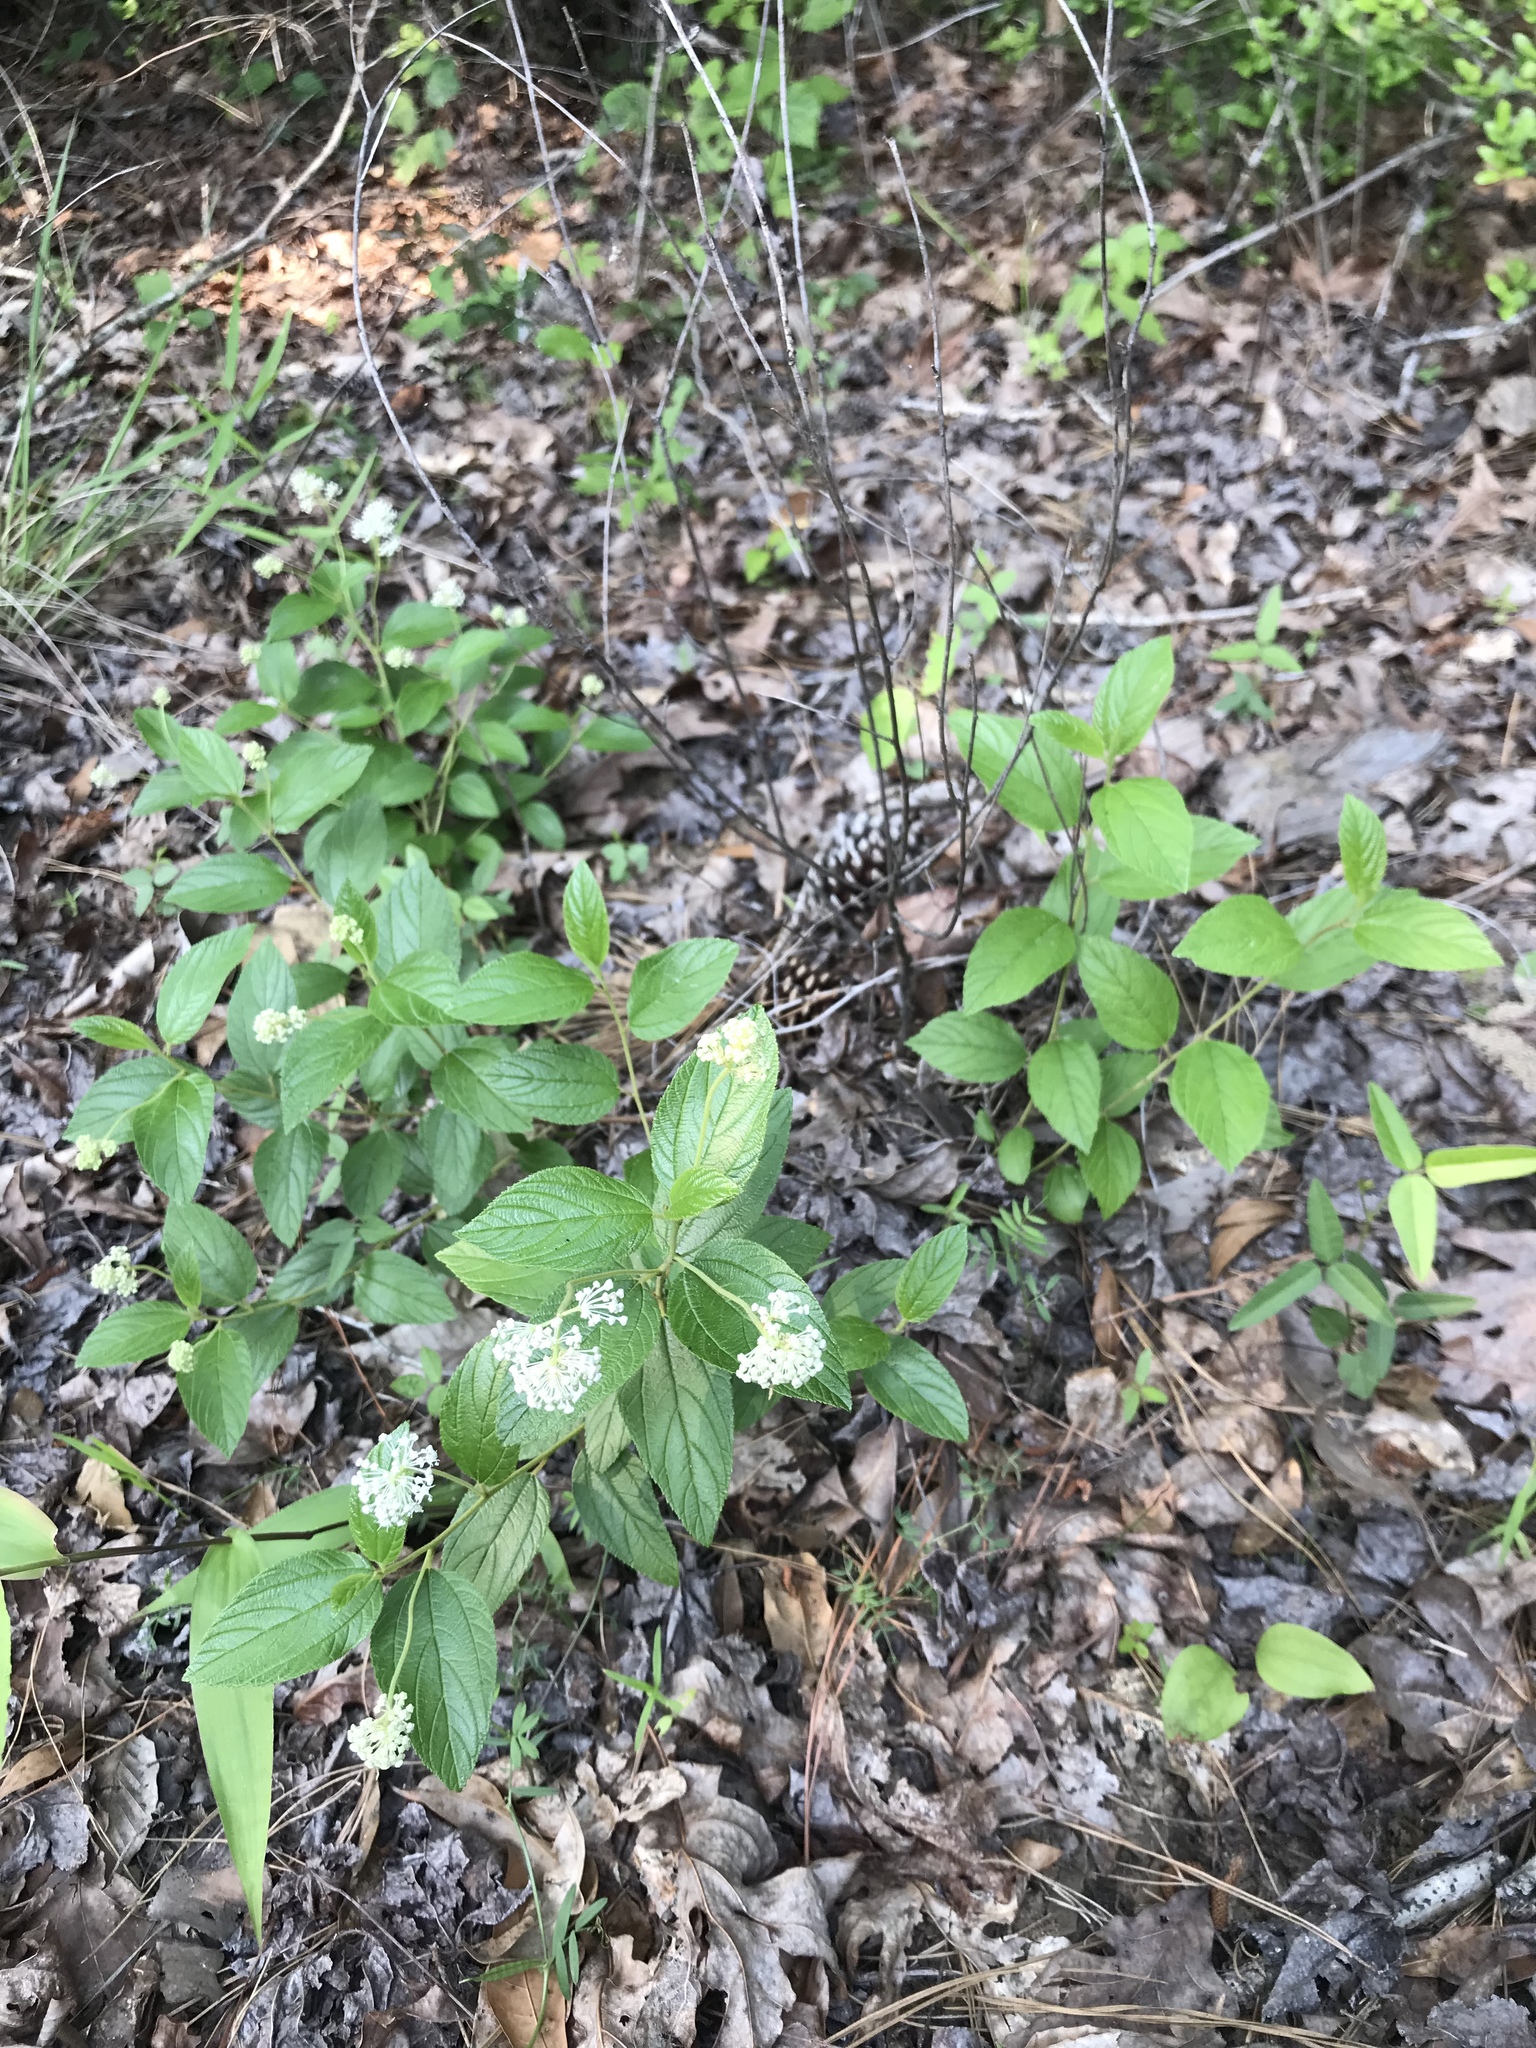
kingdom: Plantae
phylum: Tracheophyta
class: Magnoliopsida
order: Rosales
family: Rhamnaceae
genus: Ceanothus
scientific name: Ceanothus americanus
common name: Redroot
